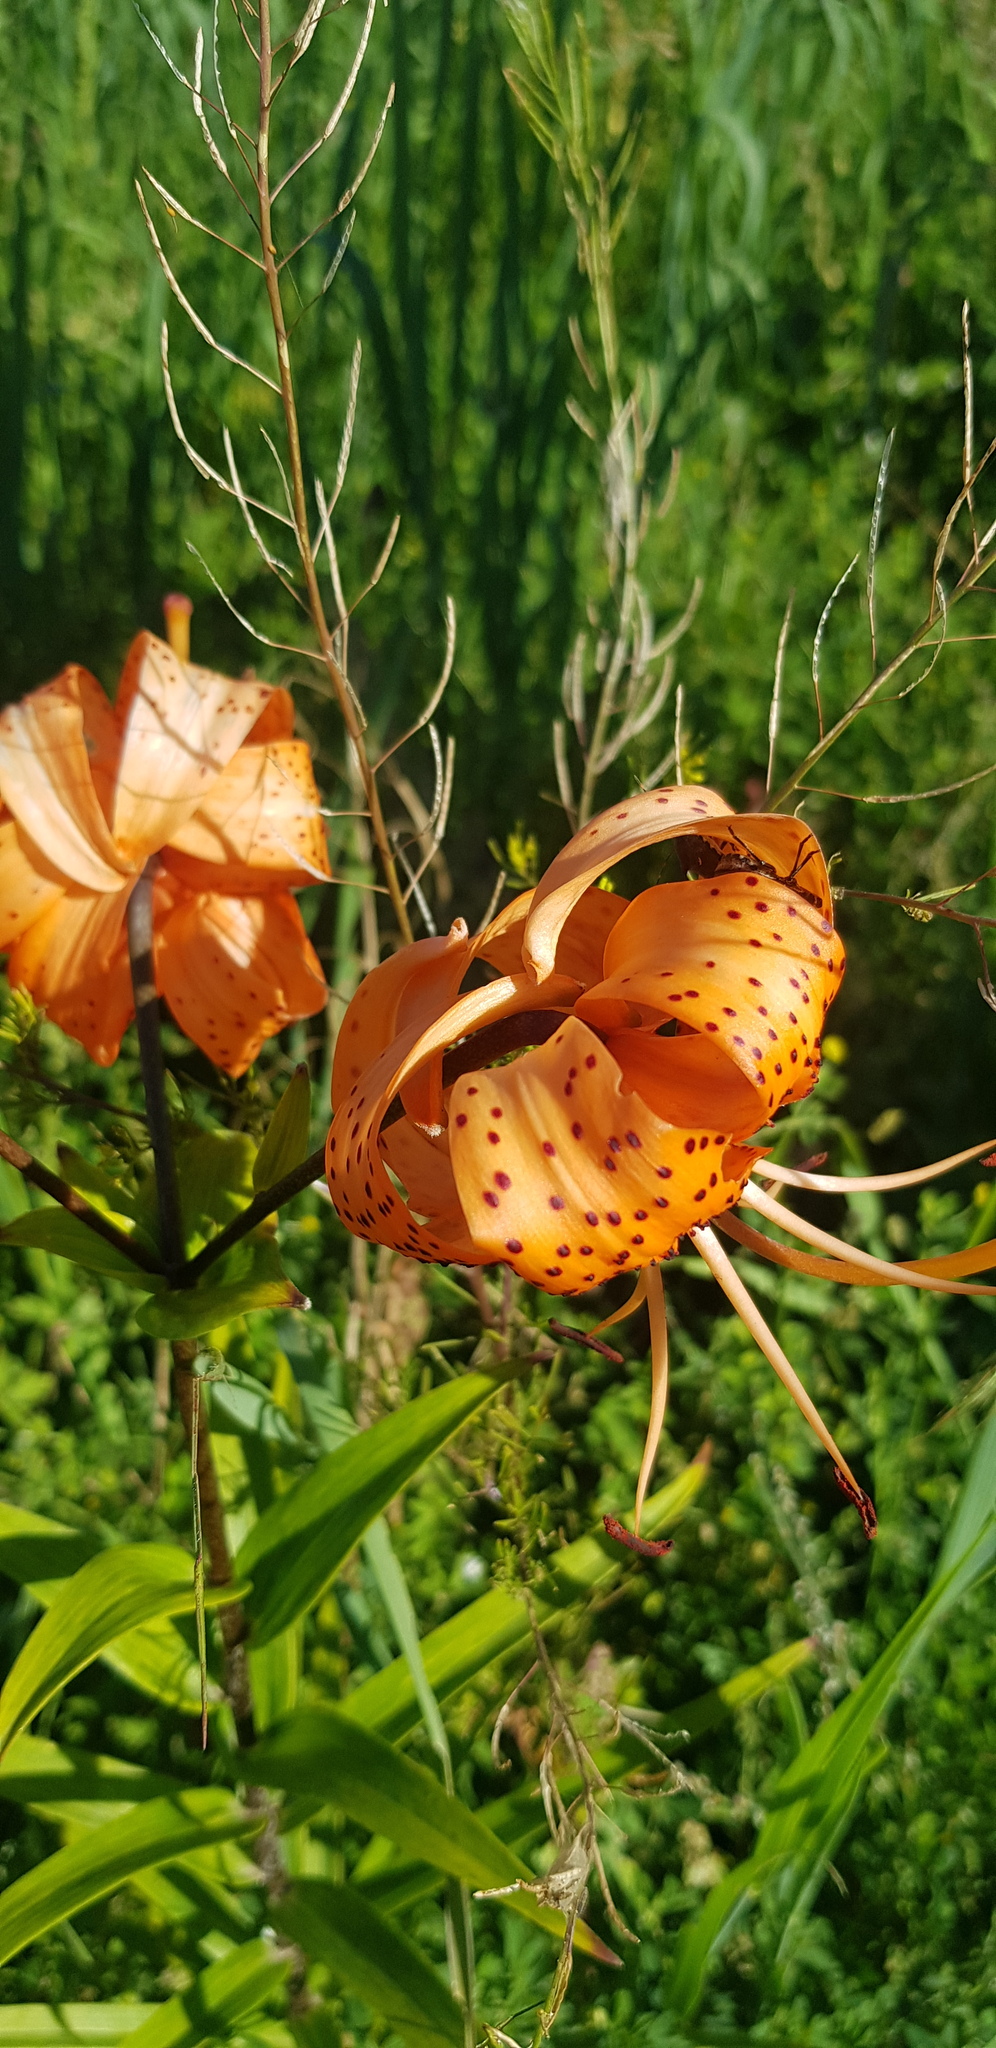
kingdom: Plantae
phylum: Tracheophyta
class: Liliopsida
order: Liliales
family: Liliaceae
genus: Lilium
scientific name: Lilium lancifolium
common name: Tiger lily
